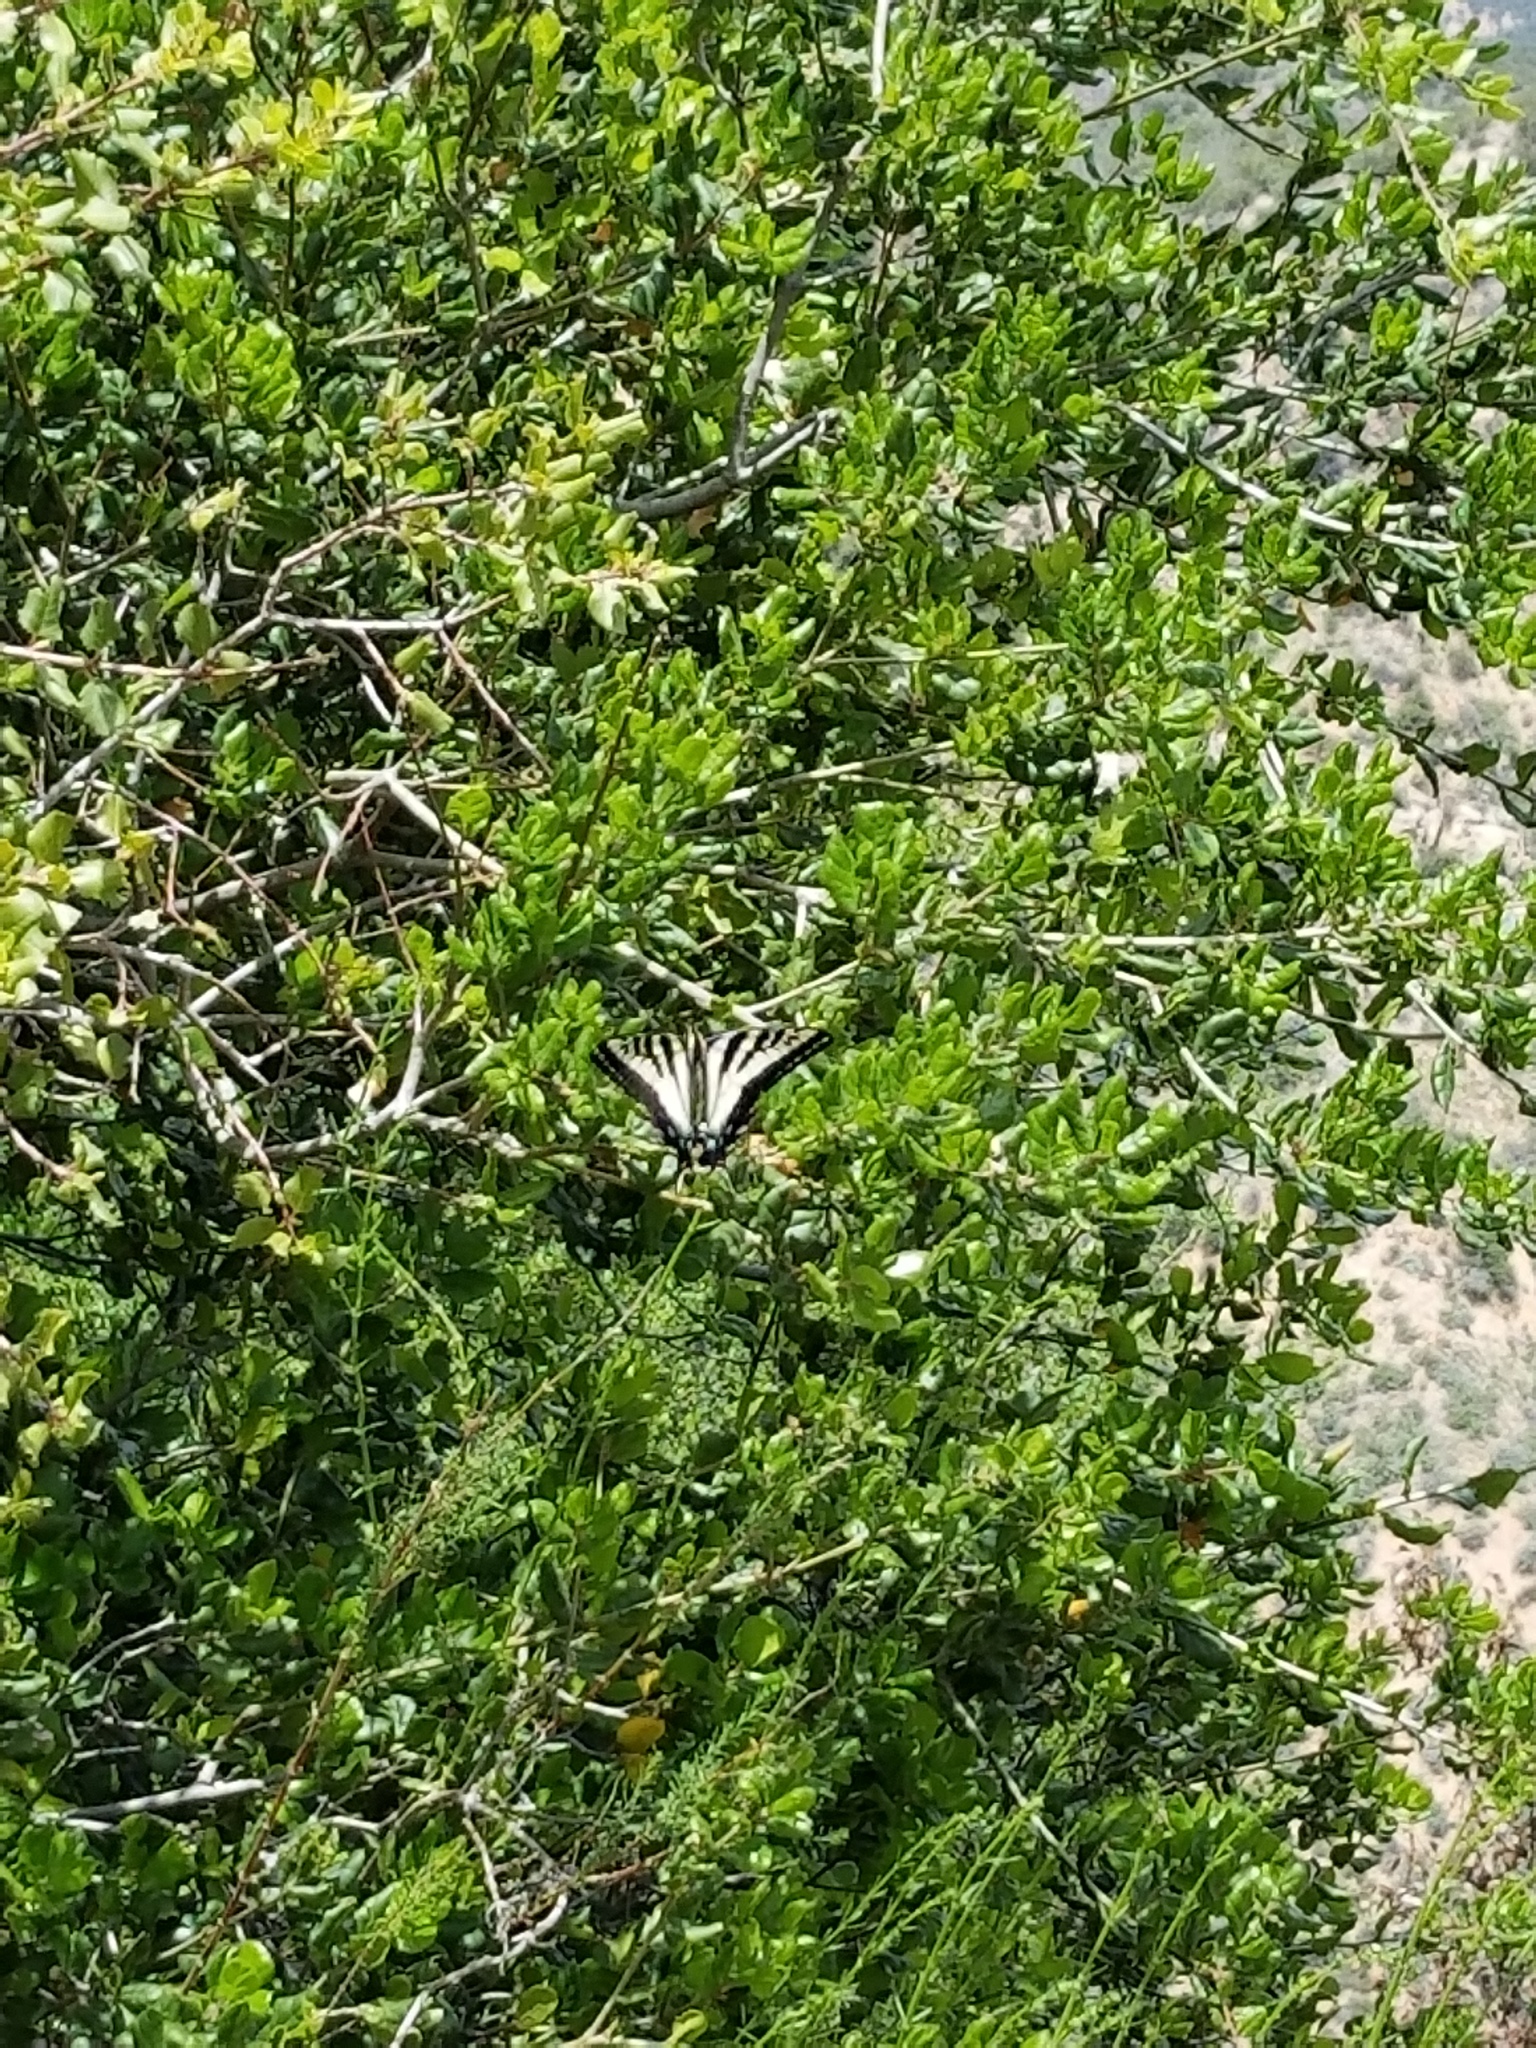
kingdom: Animalia
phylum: Arthropoda
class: Insecta
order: Lepidoptera
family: Papilionidae
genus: Papilio
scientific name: Papilio eurymedon
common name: Pale tiger swallowtail
